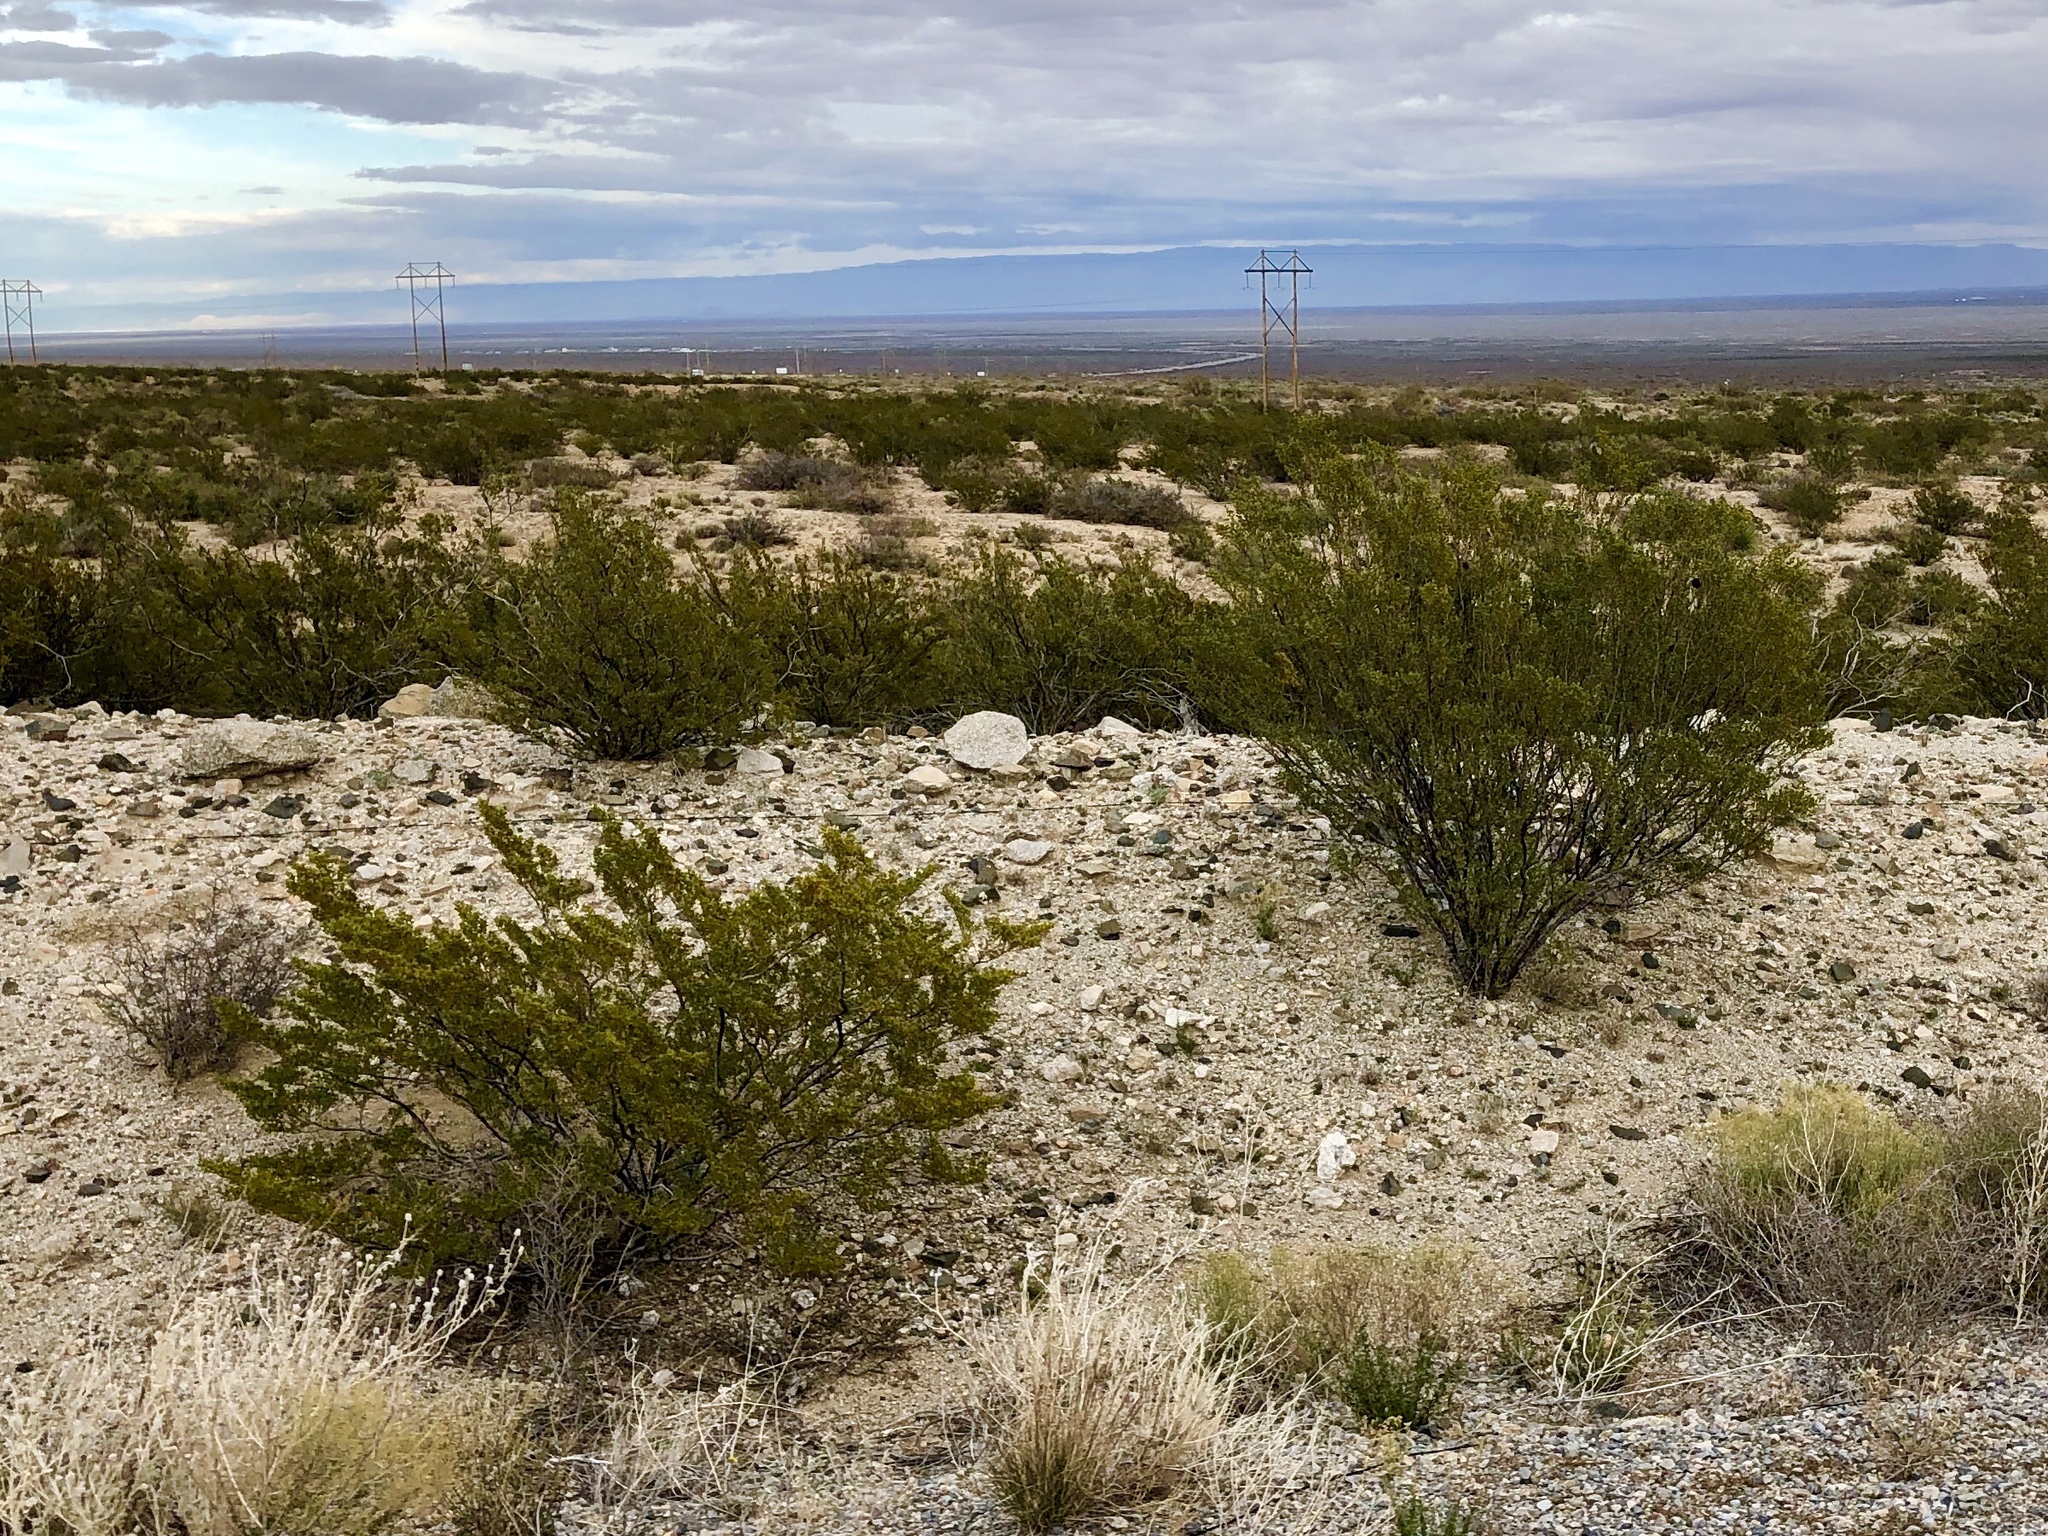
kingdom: Plantae
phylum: Tracheophyta
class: Magnoliopsida
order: Zygophyllales
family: Zygophyllaceae
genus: Larrea
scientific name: Larrea tridentata
